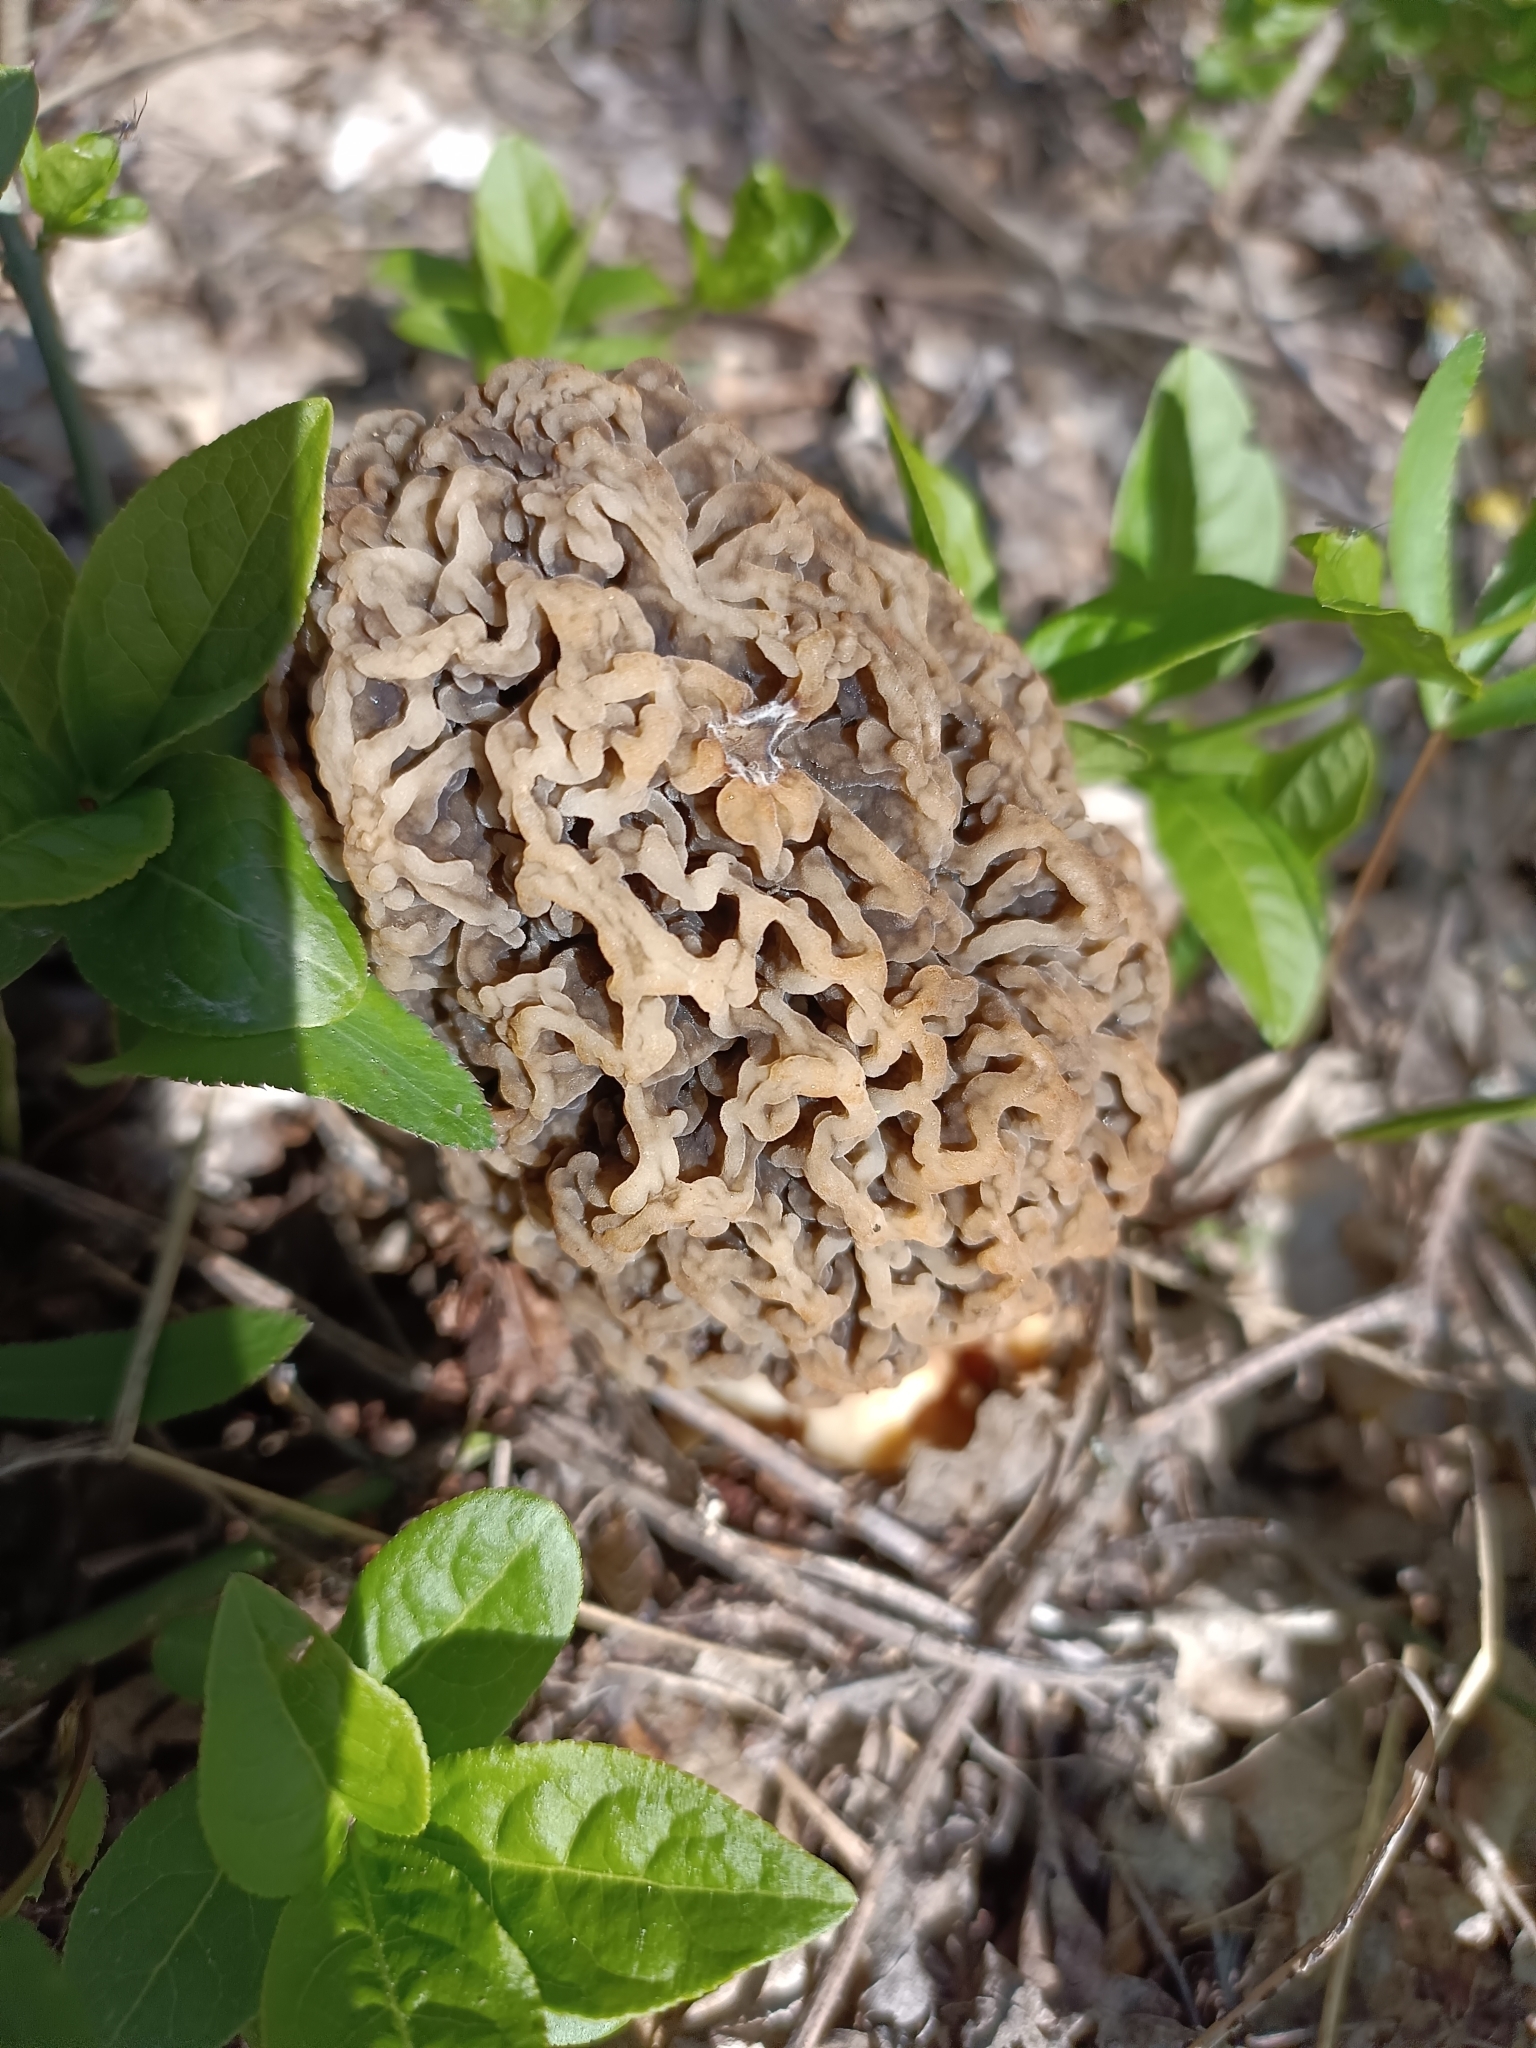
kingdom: Fungi
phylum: Ascomycota
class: Pezizomycetes
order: Pezizales
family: Morchellaceae
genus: Morchella
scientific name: Morchella vulgaris
